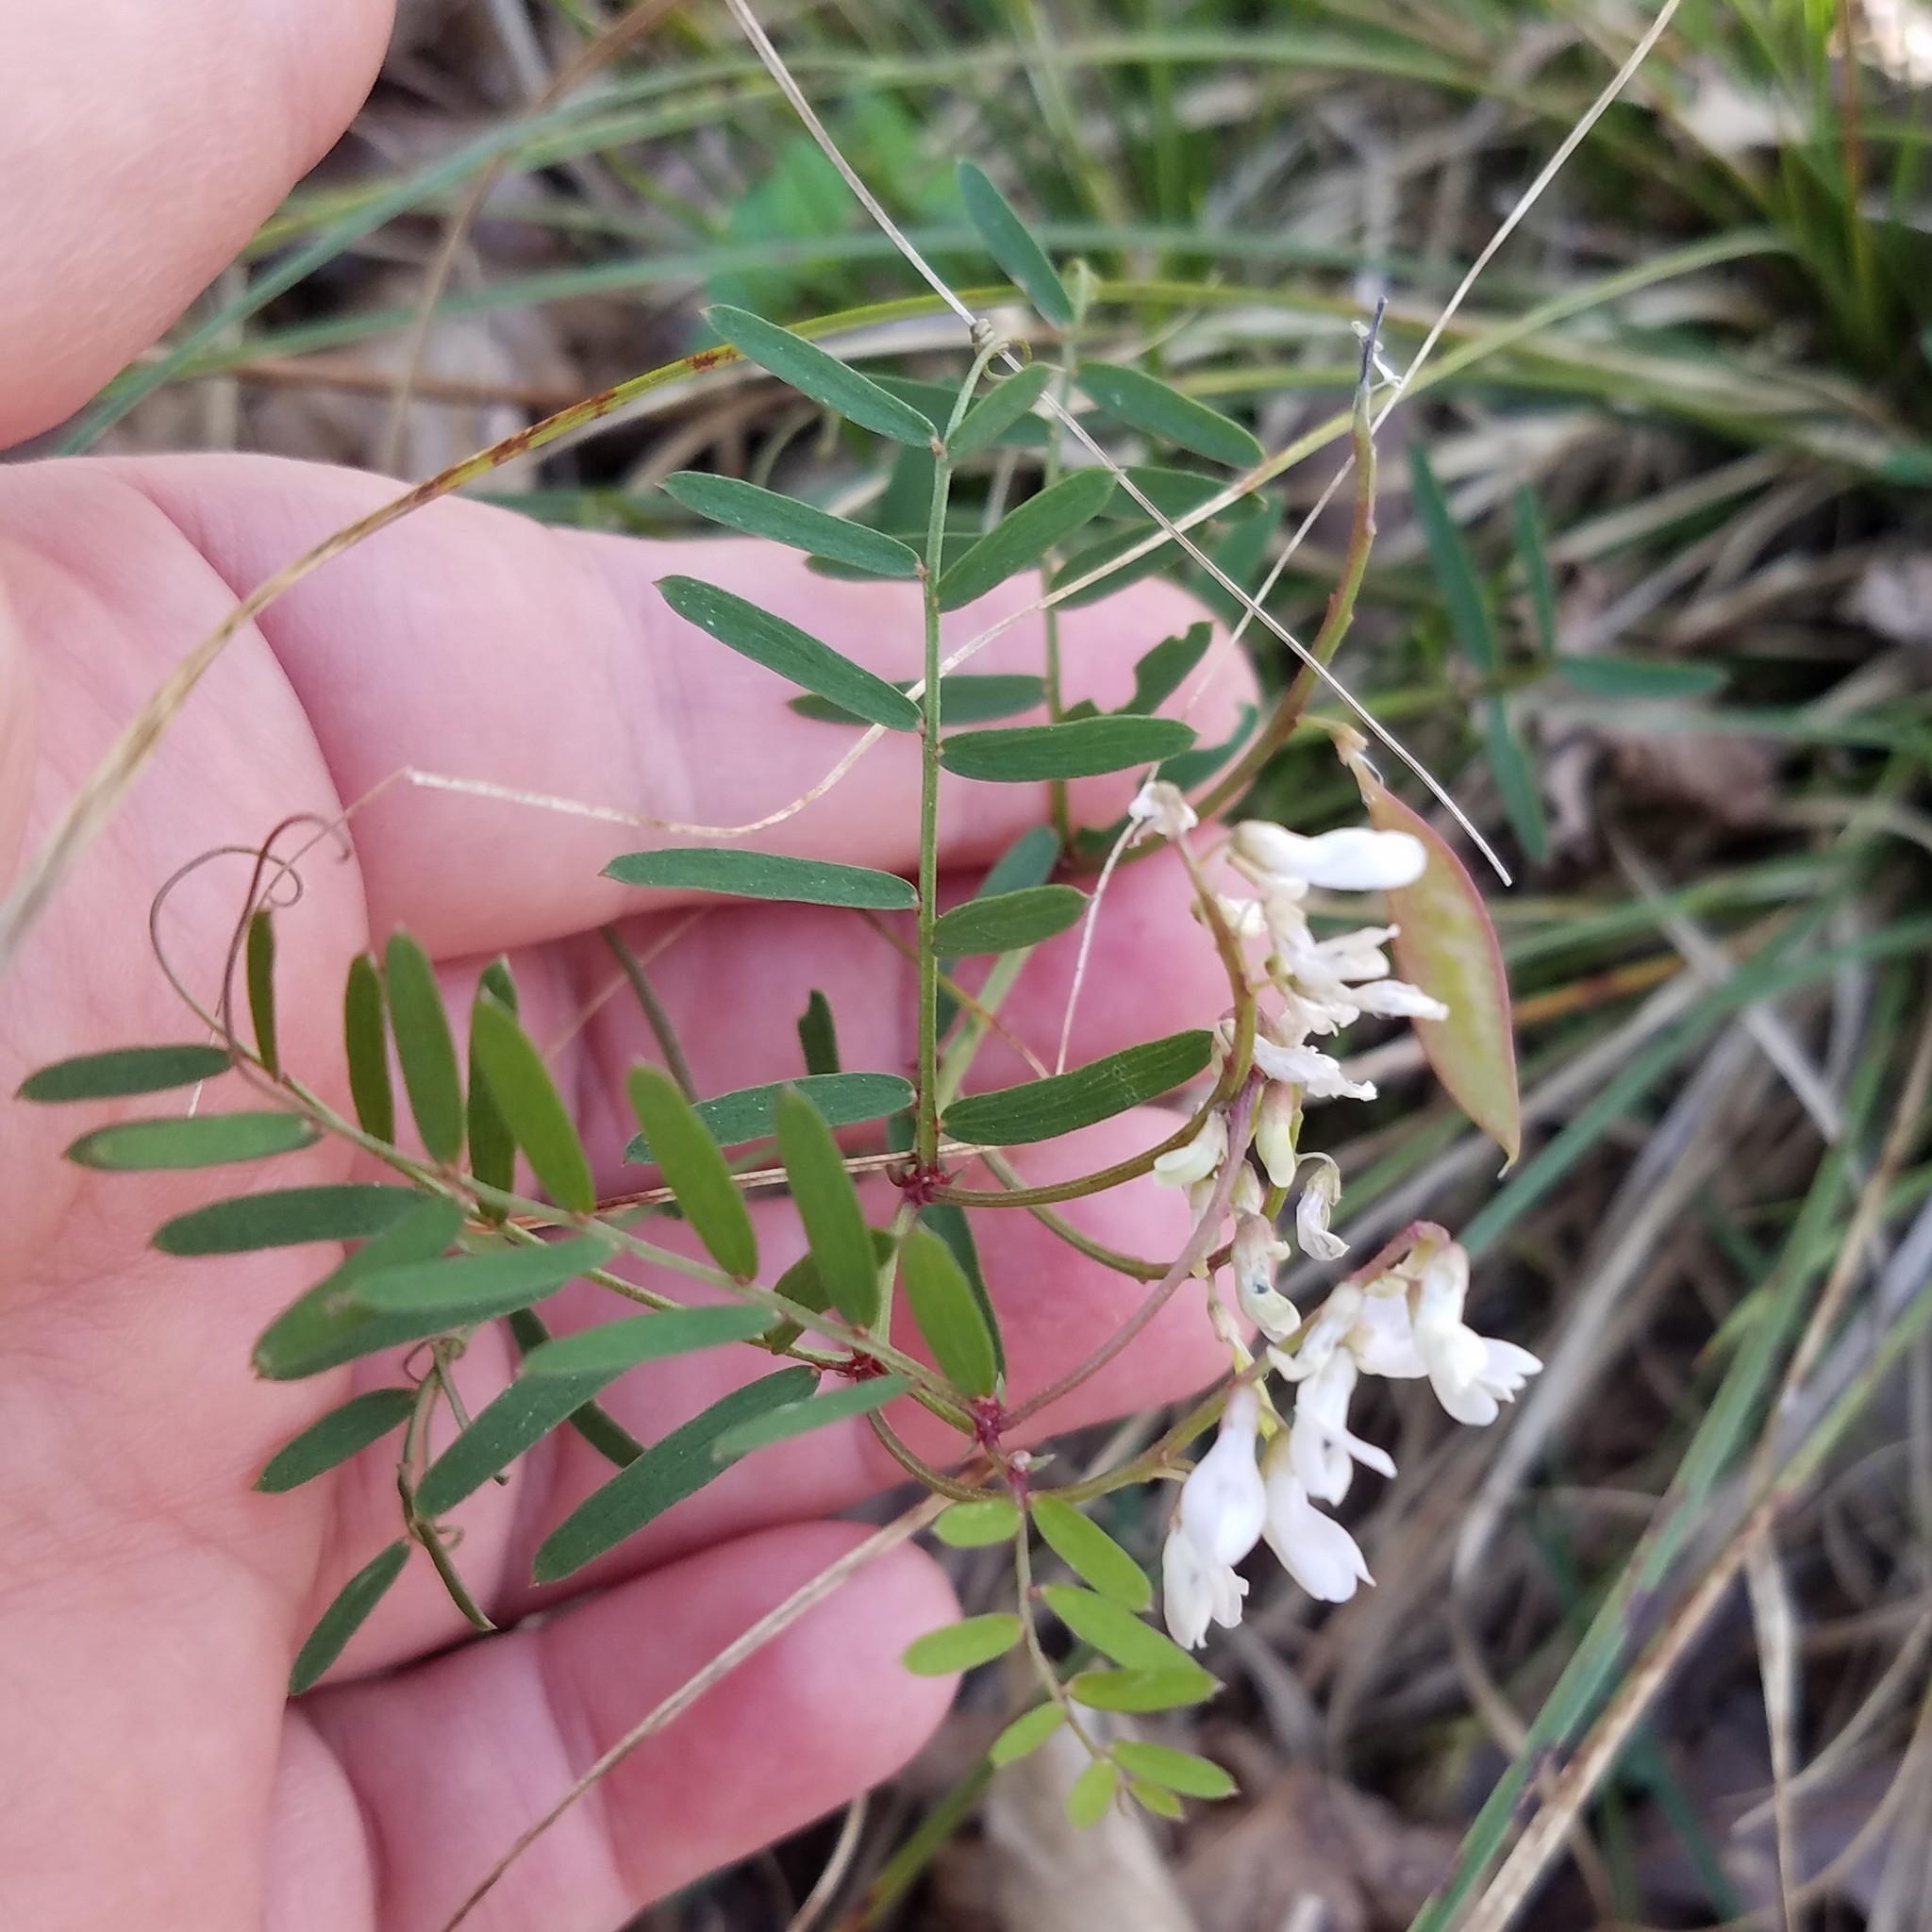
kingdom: Plantae
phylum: Tracheophyta
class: Magnoliopsida
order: Fabales
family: Fabaceae
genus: Vicia
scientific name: Vicia caroliniana
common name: Carolina vetch
